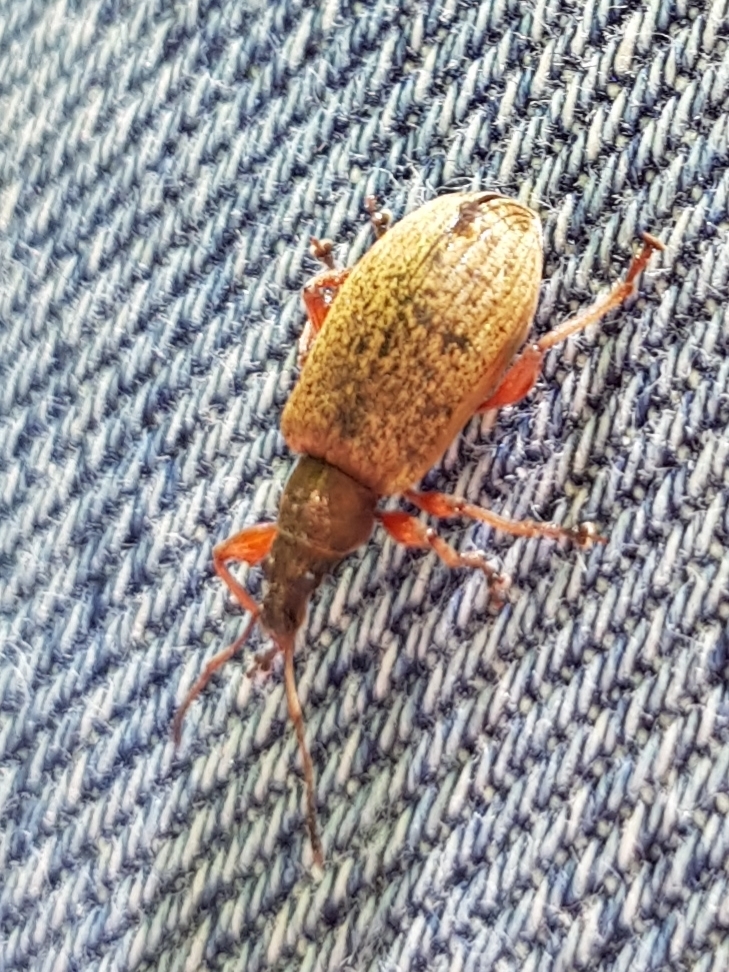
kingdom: Animalia
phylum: Arthropoda
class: Insecta
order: Coleoptera
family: Curculionidae
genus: Phyllobius
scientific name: Phyllobius glaucus
